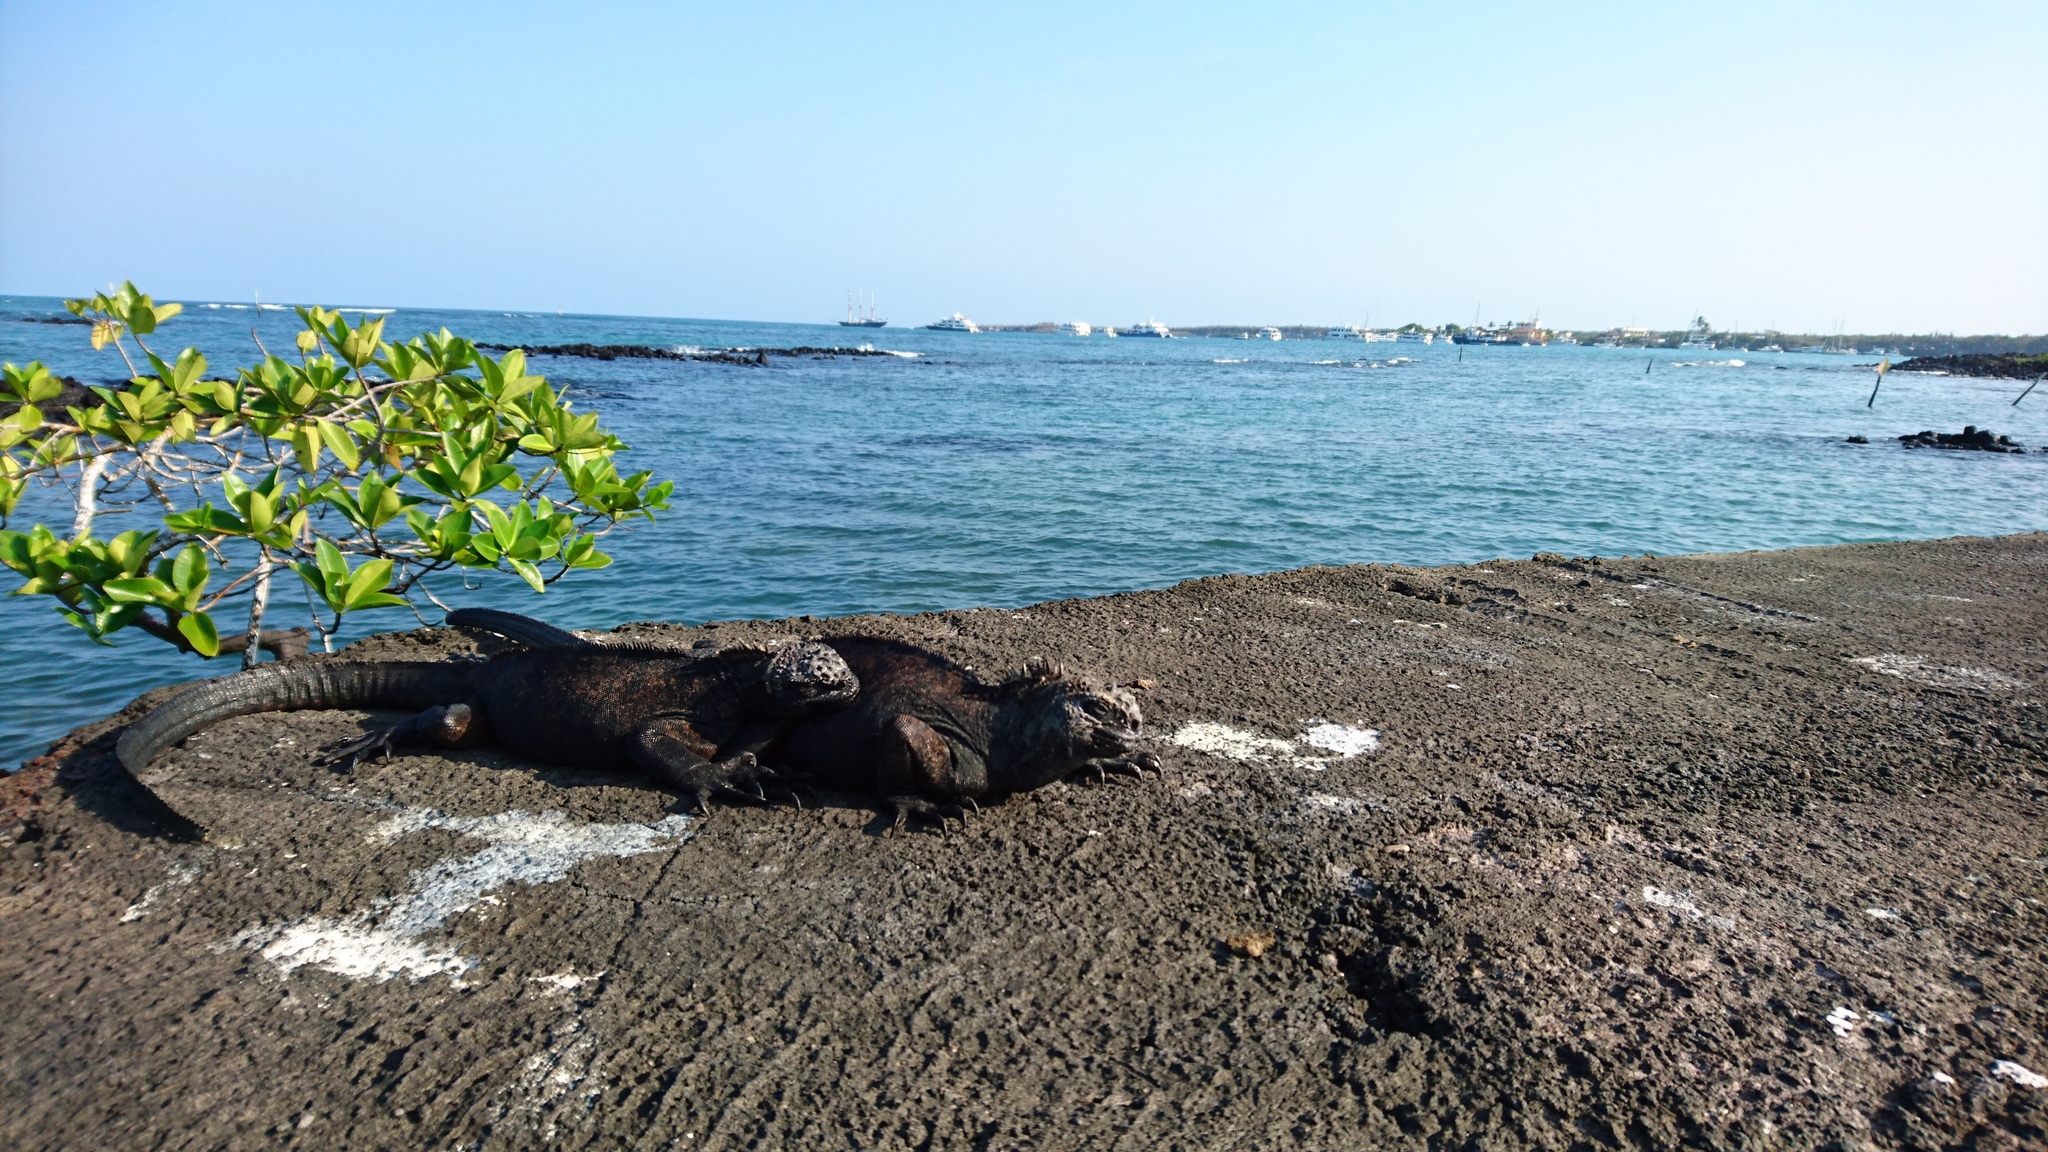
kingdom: Animalia
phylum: Chordata
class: Squamata
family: Iguanidae
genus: Amblyrhynchus
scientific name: Amblyrhynchus cristatus
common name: Marine iguana
